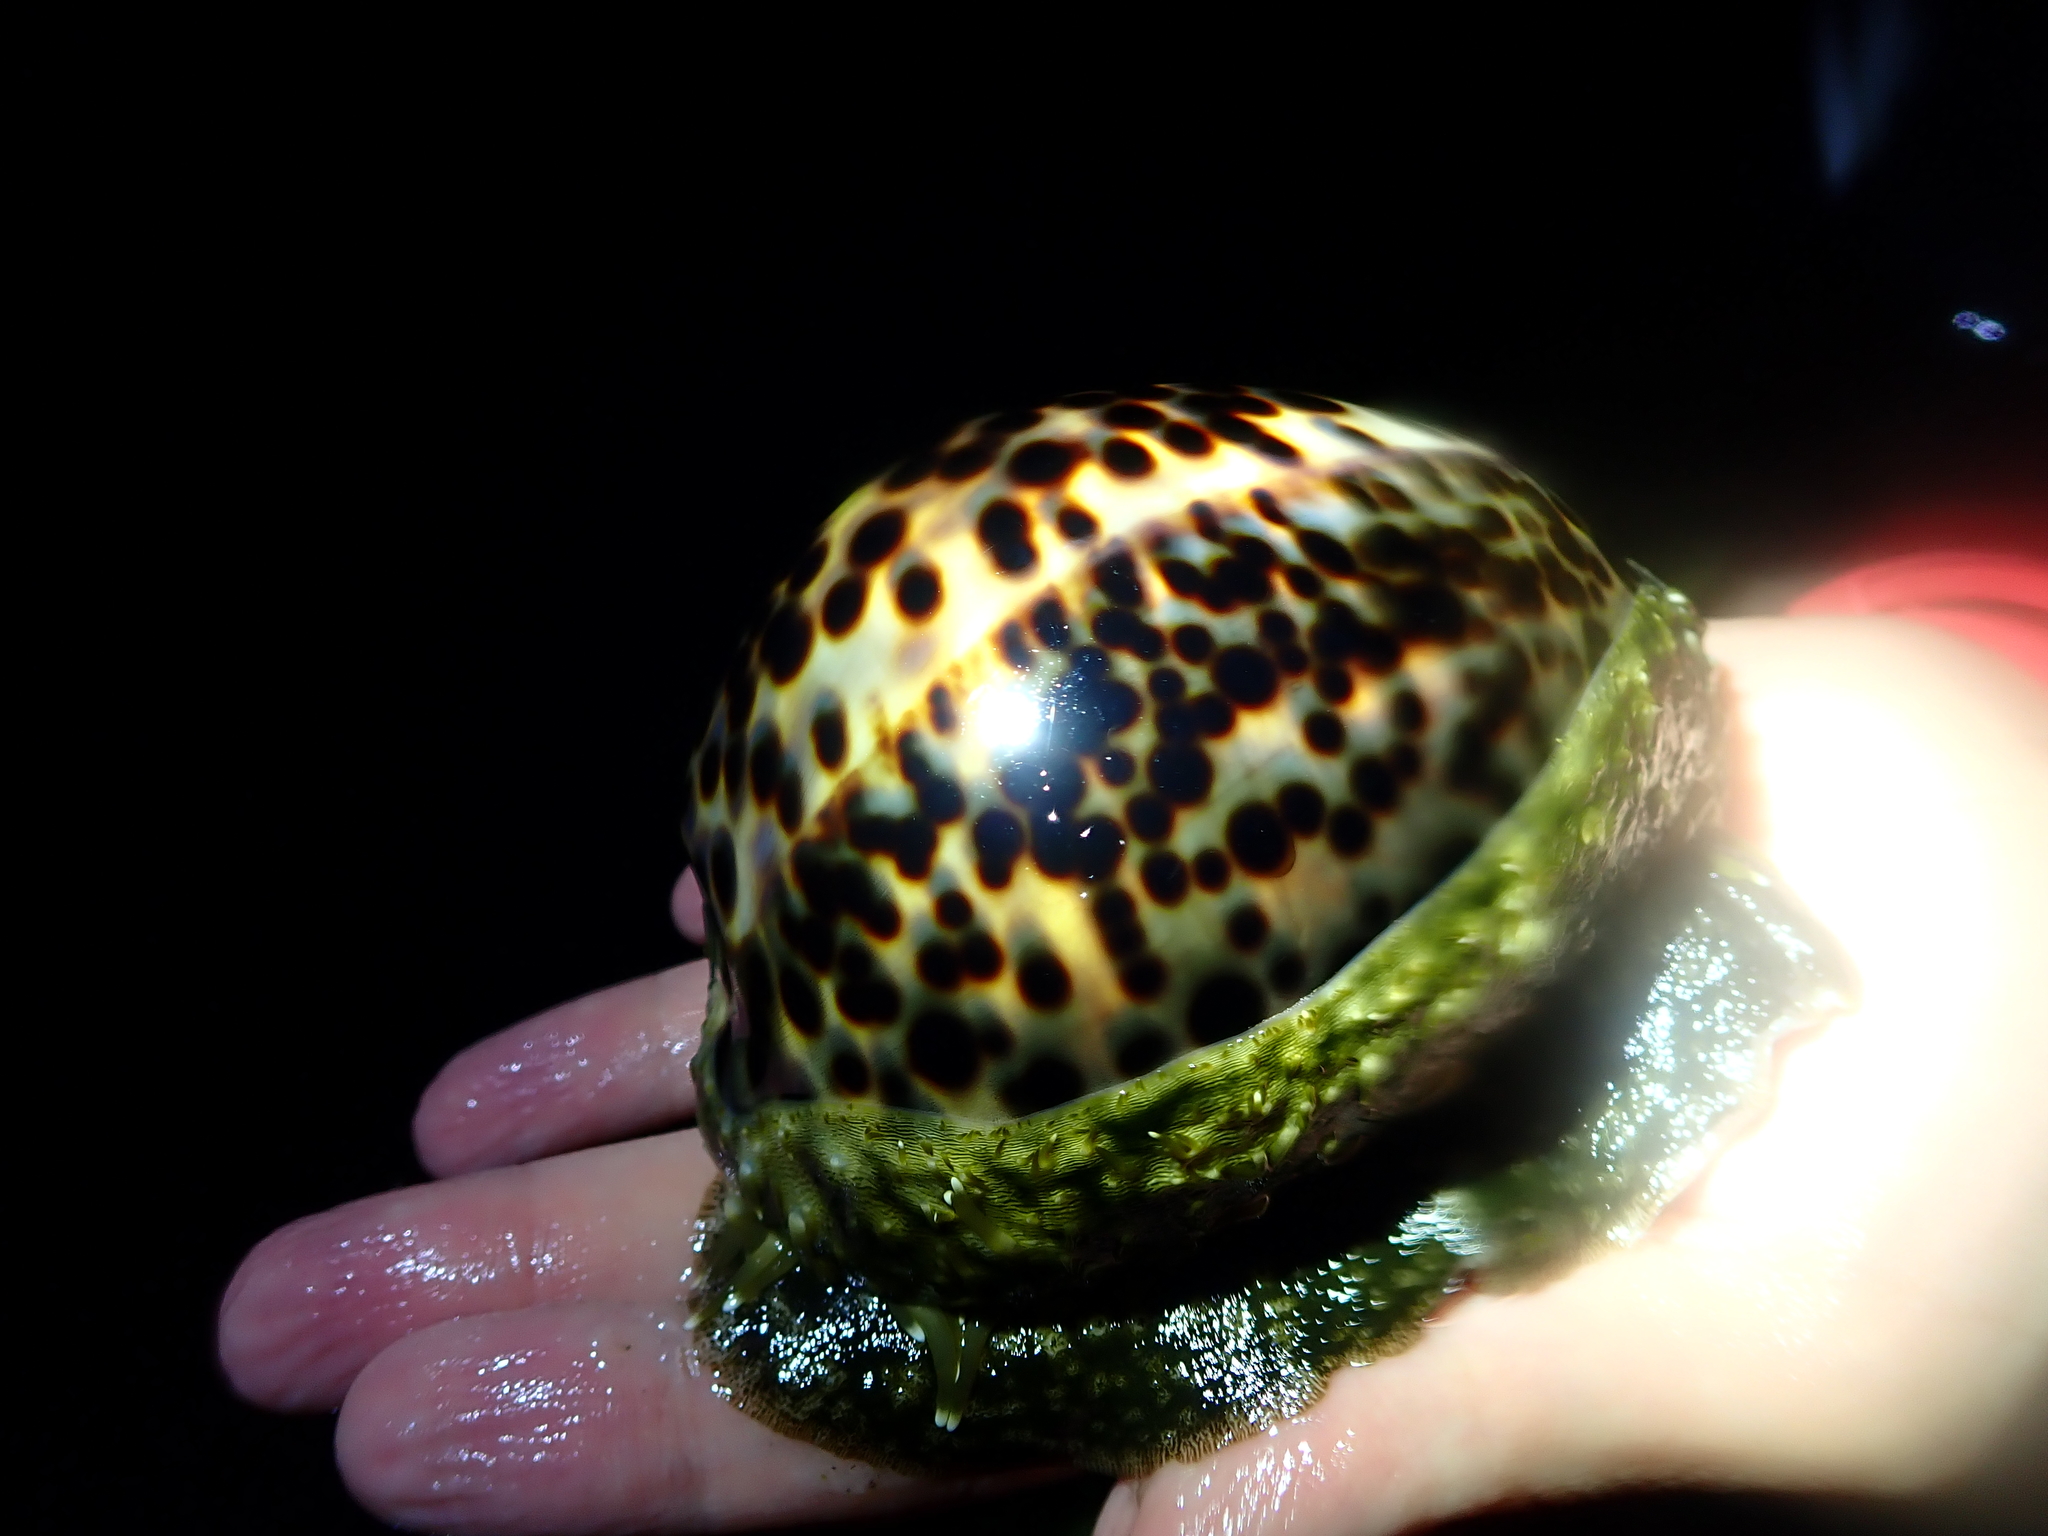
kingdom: Animalia
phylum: Mollusca
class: Gastropoda
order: Littorinimorpha
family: Cypraeidae
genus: Cypraea
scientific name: Cypraea tigris
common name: Tiger cowrie
